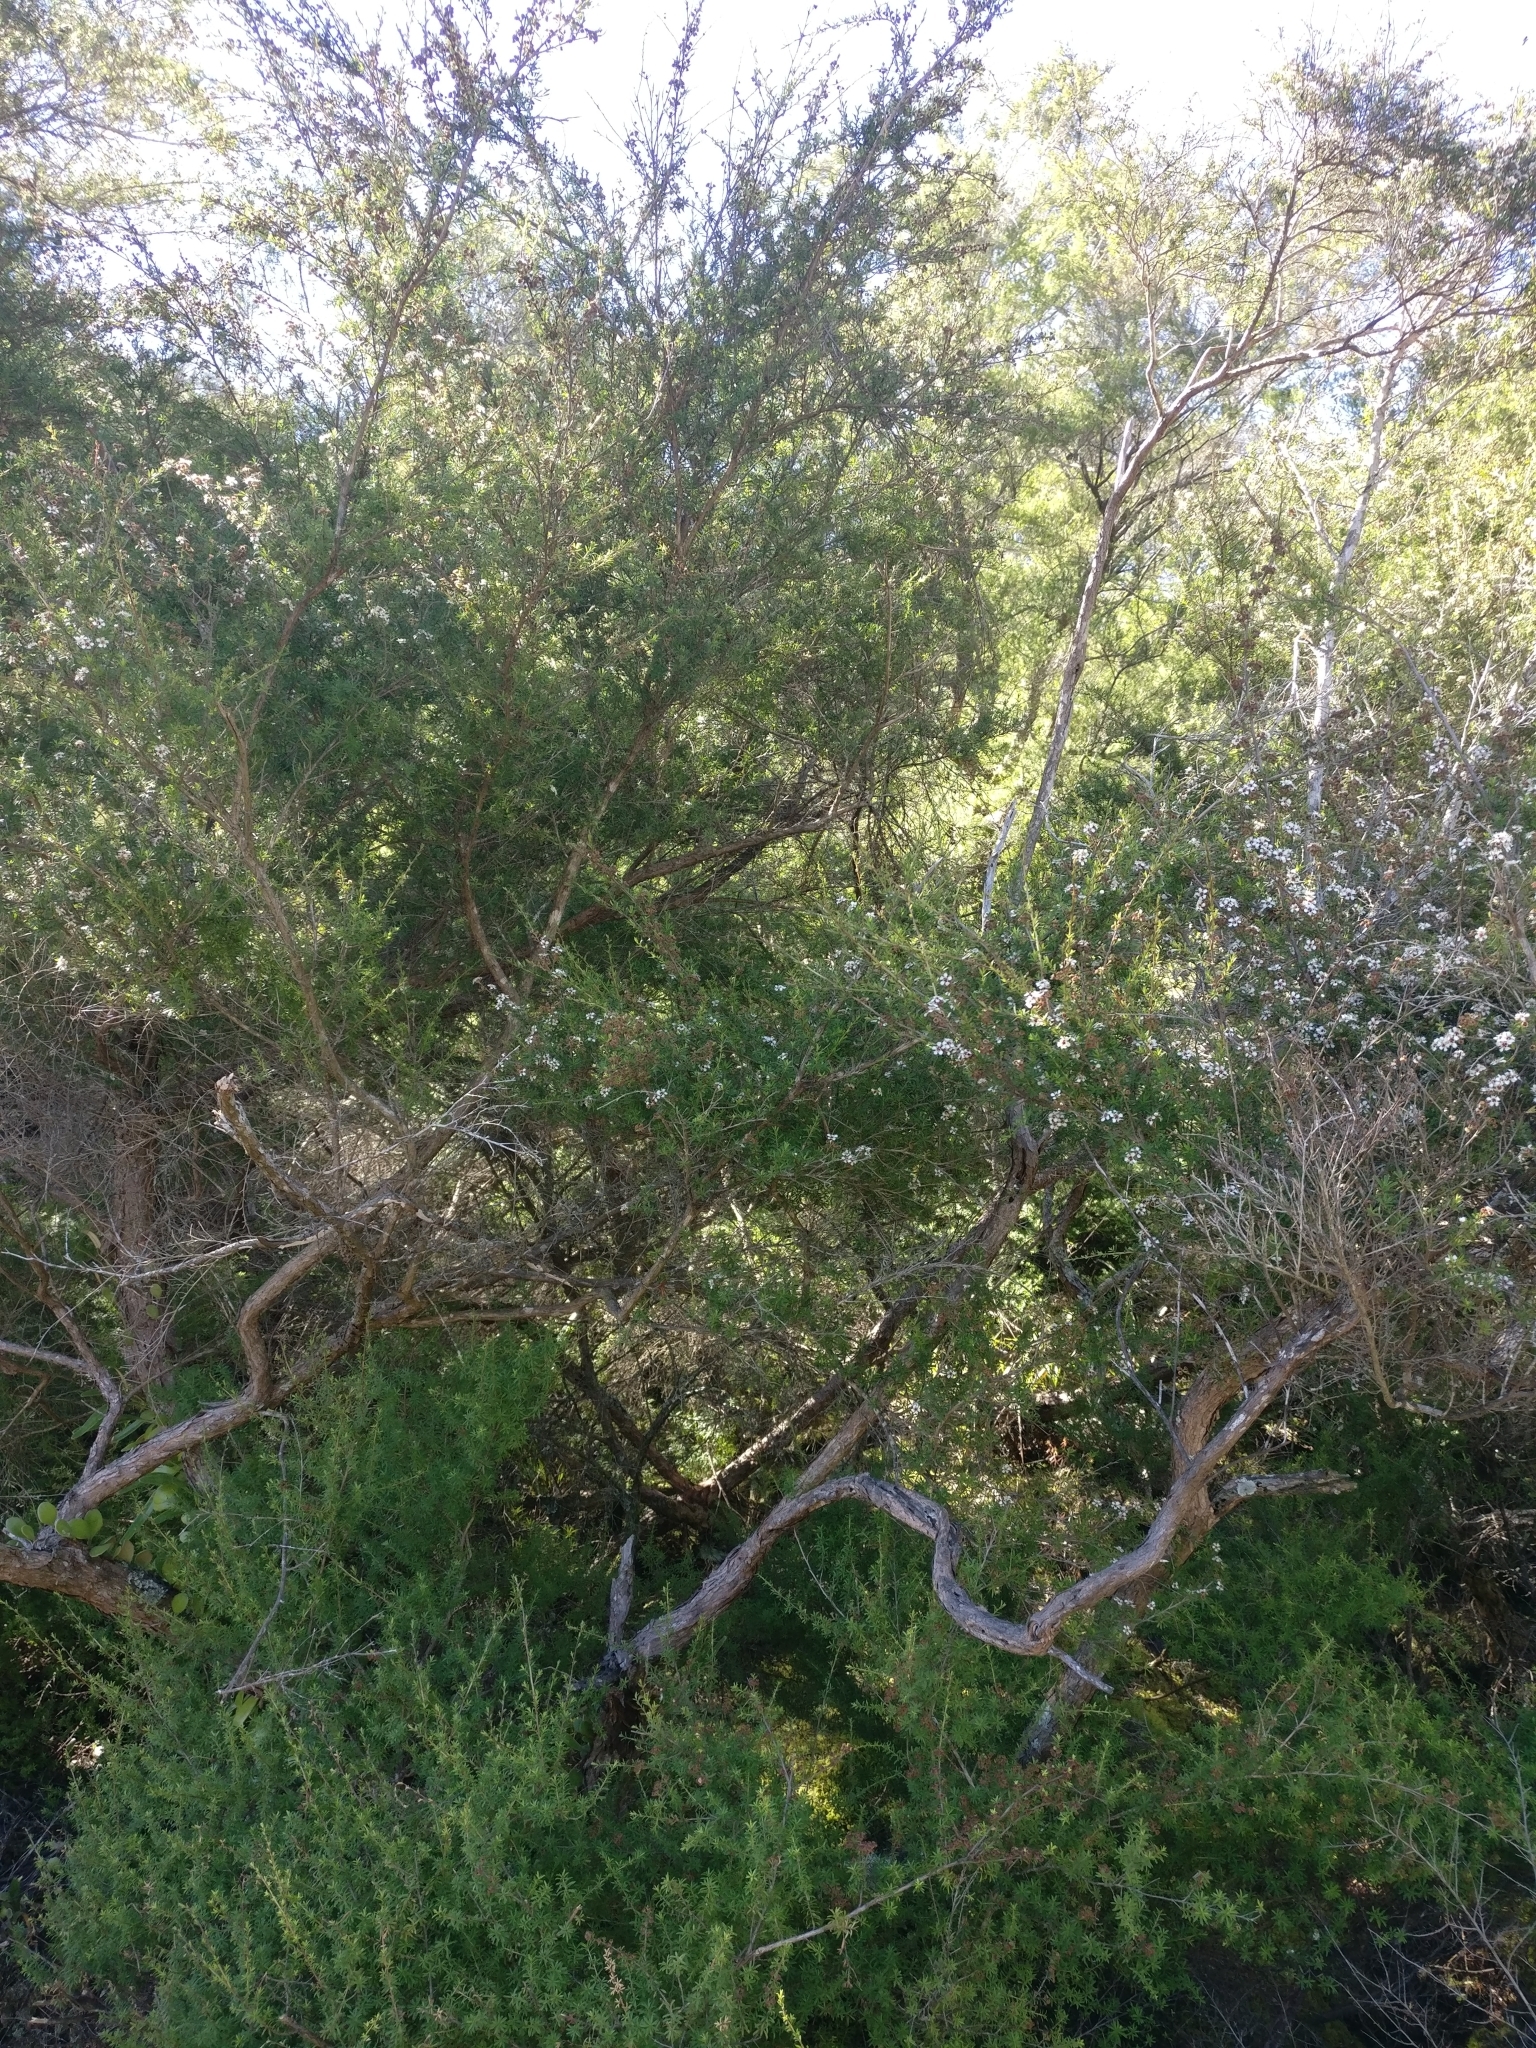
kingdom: Plantae
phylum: Tracheophyta
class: Magnoliopsida
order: Myrtales
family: Myrtaceae
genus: Kunzea
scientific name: Kunzea tenuicaulis
